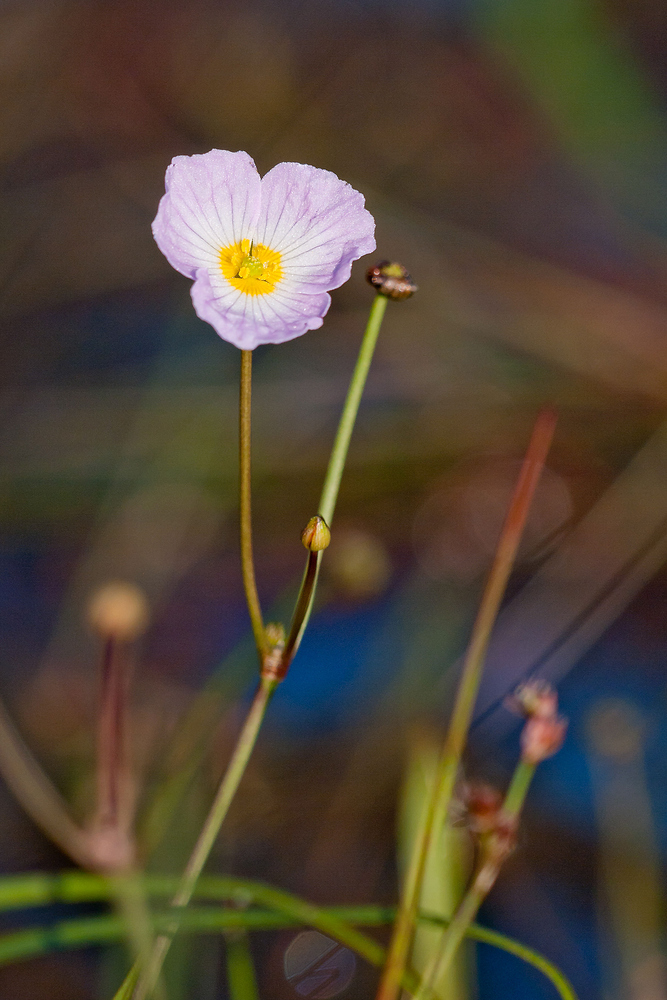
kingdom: Plantae
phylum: Tracheophyta
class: Liliopsida
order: Alismatales
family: Alismataceae
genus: Baldellia
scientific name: Baldellia ranunculoides
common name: Lesser water-plantain
